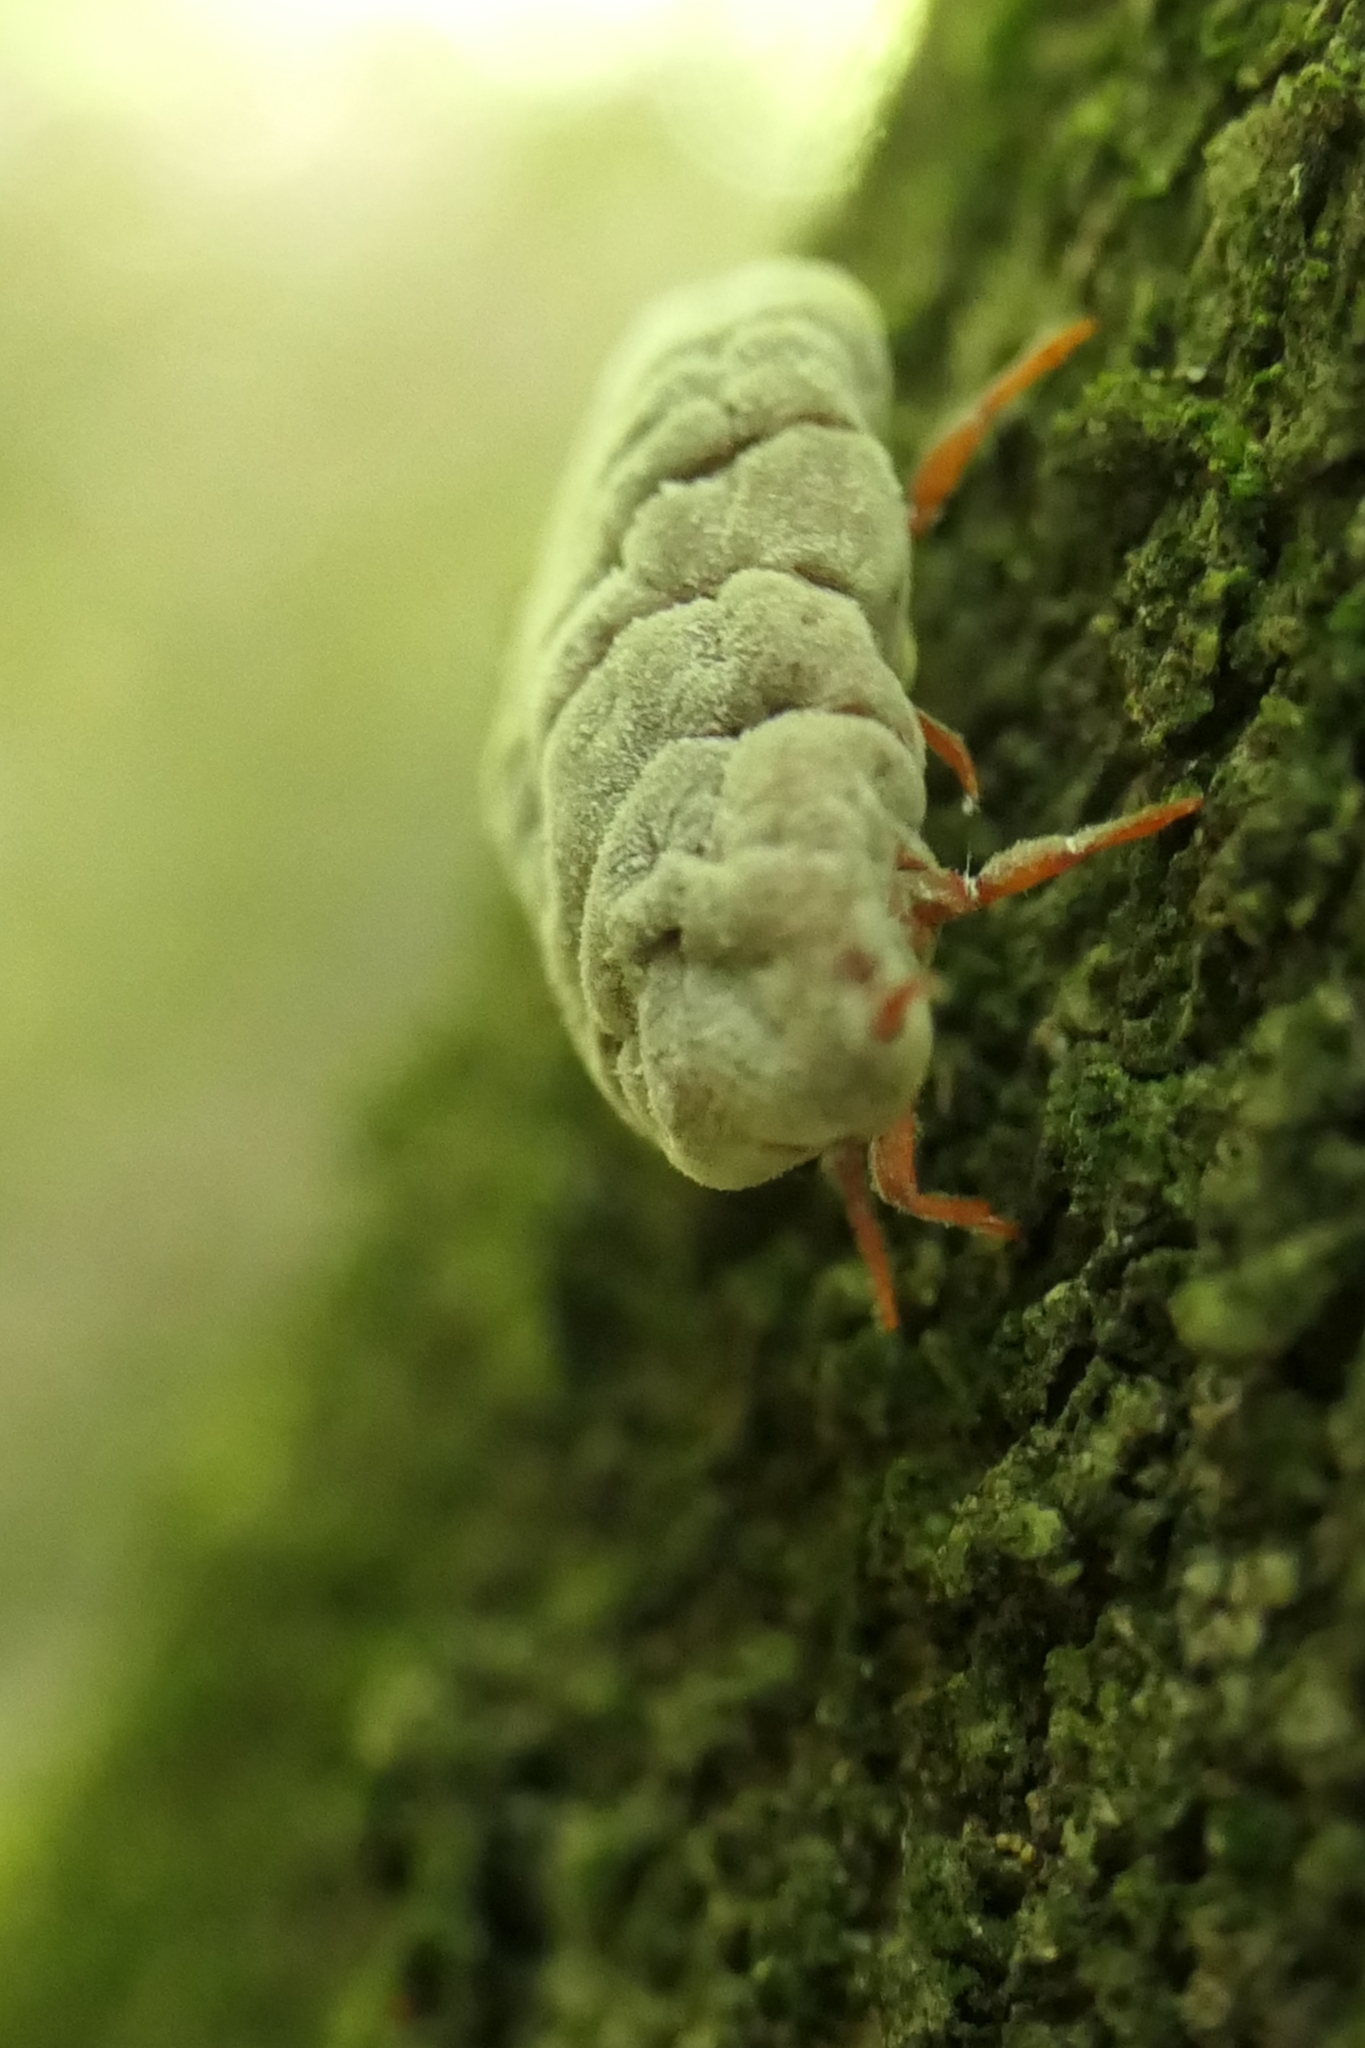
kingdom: Animalia
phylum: Arthropoda
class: Insecta
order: Hemiptera
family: Margarodidae
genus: Coelostomidia
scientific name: Coelostomidia zealandica
